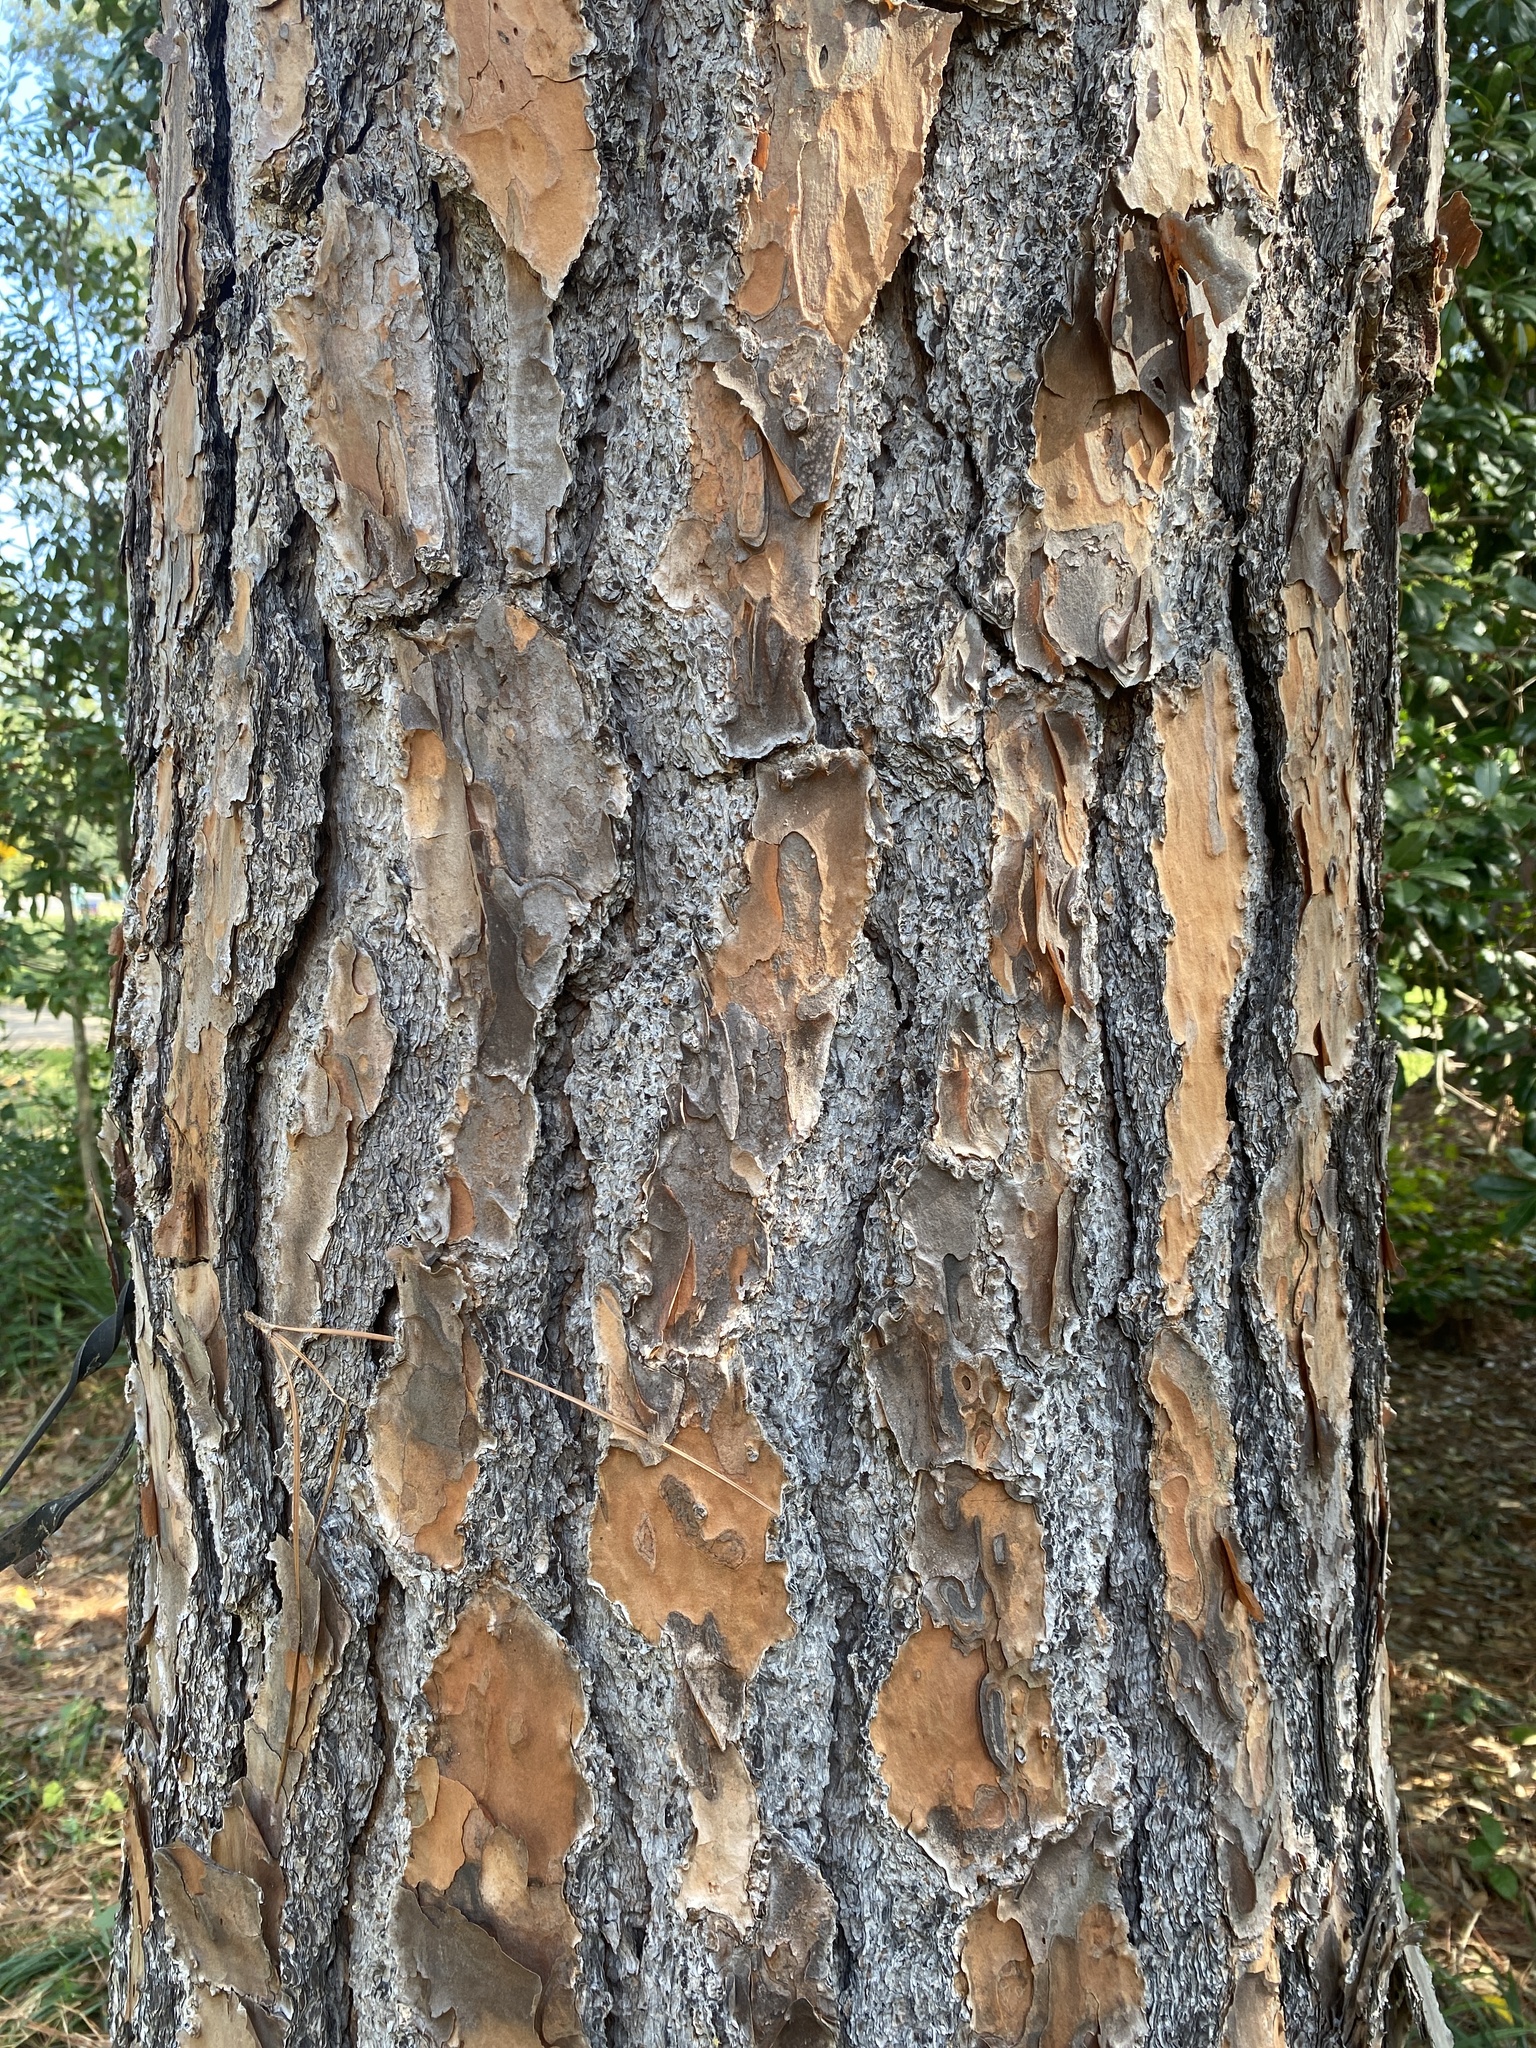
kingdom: Plantae
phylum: Tracheophyta
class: Pinopsida
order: Pinales
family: Pinaceae
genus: Pinus
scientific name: Pinus elliottii
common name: Slash pine
